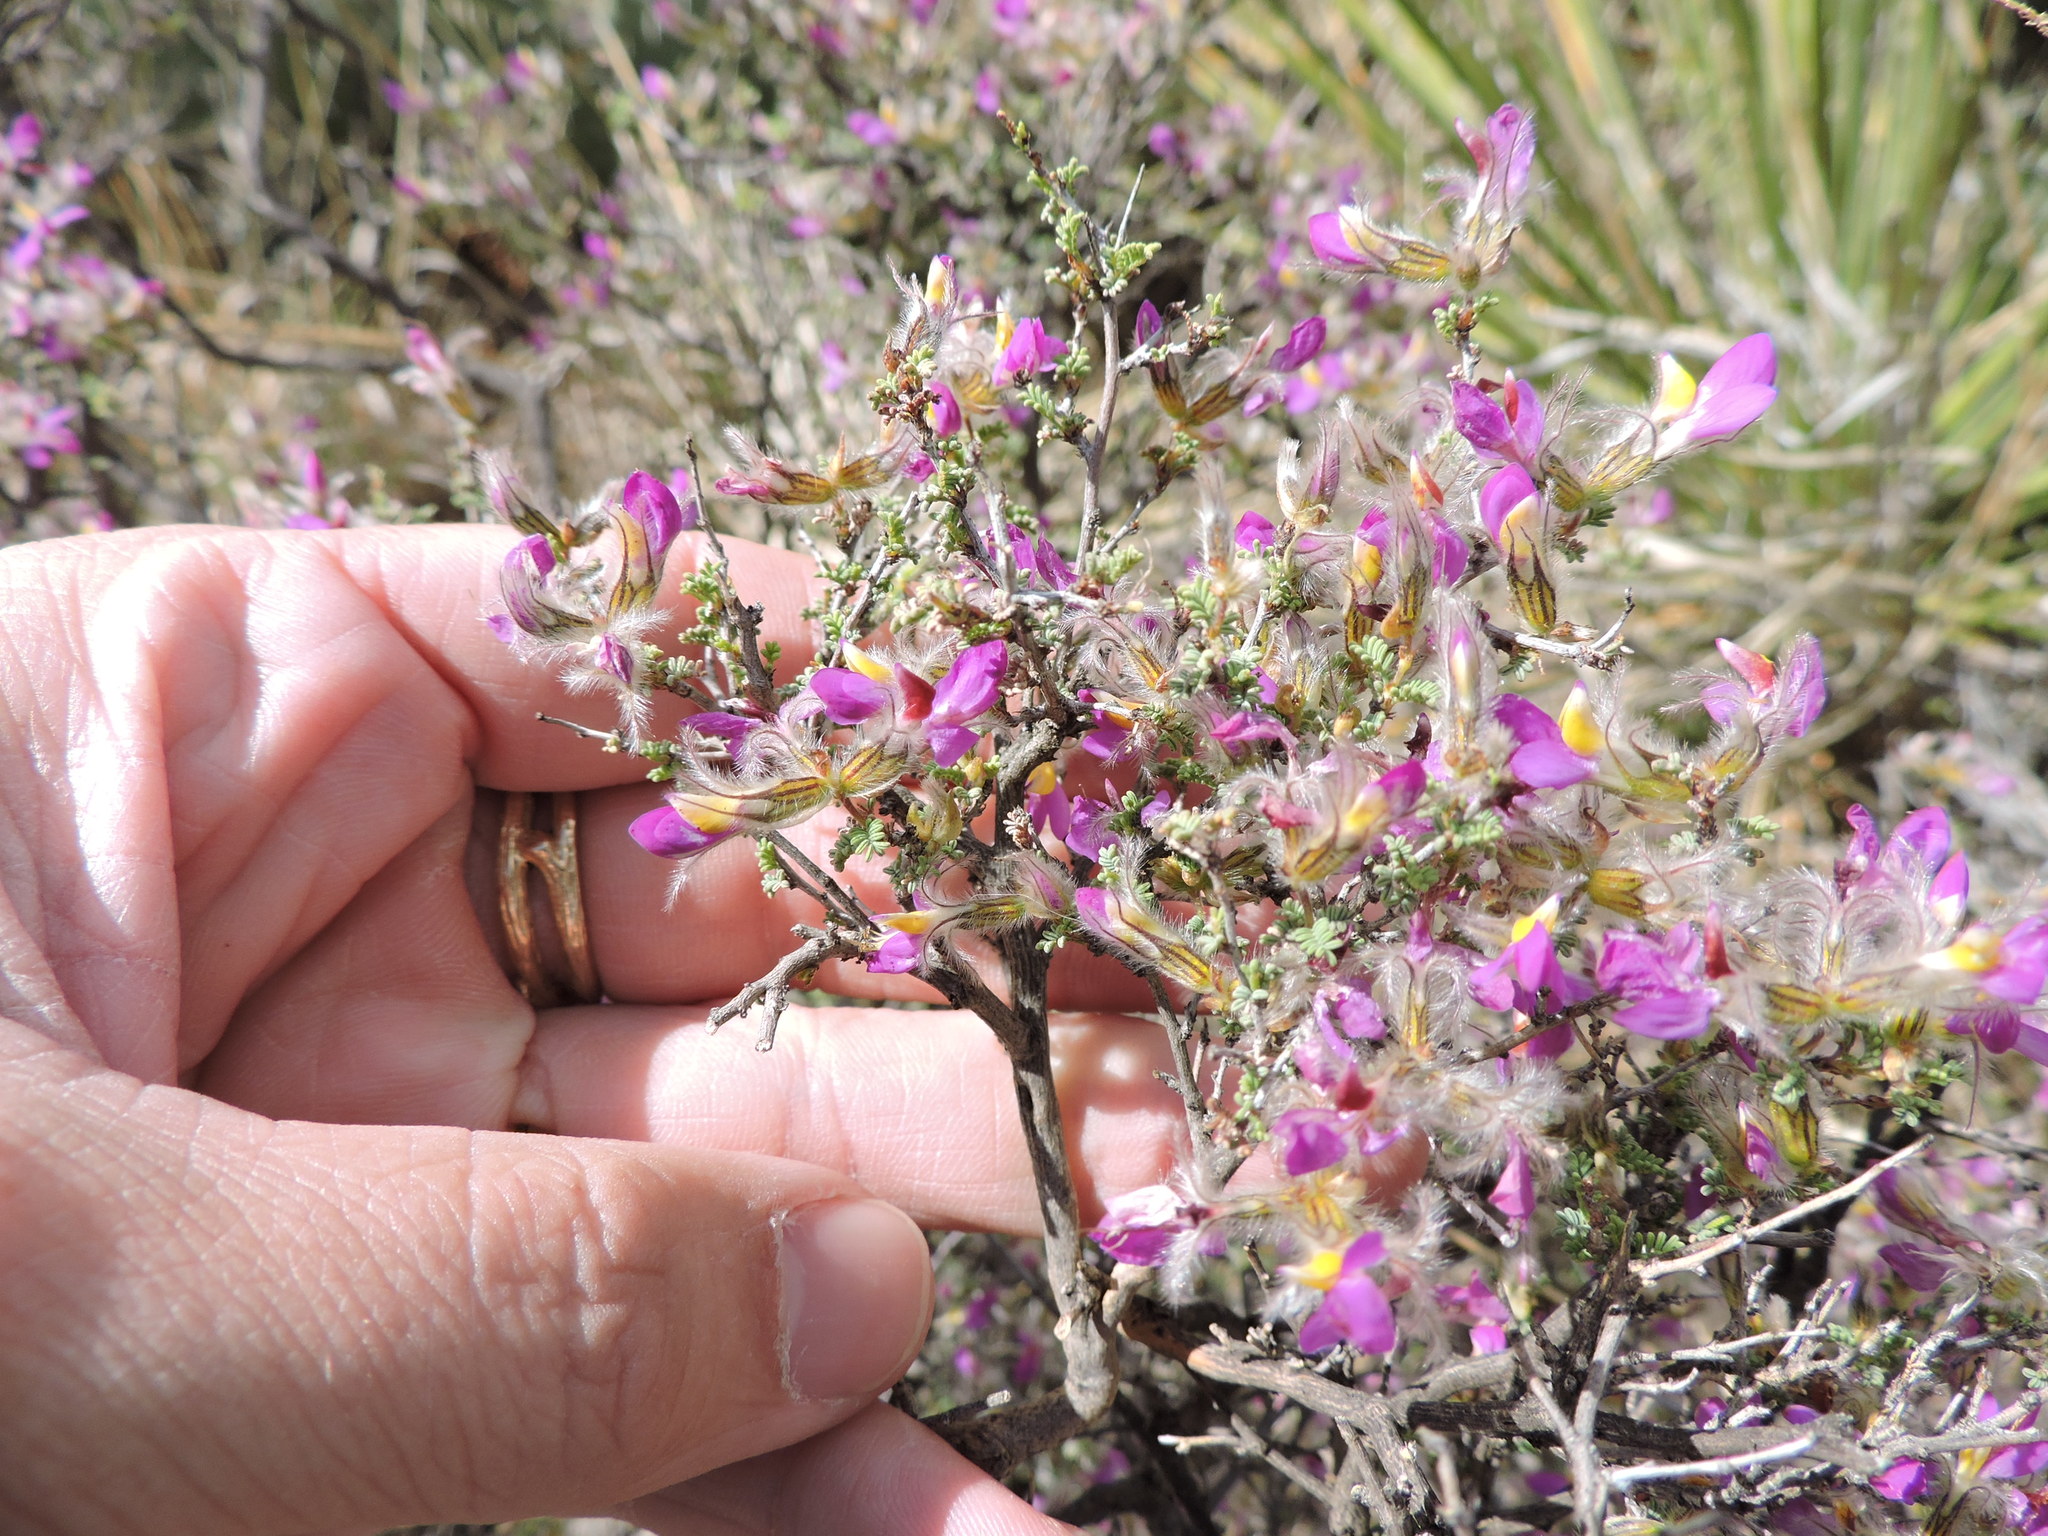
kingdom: Plantae
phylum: Tracheophyta
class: Magnoliopsida
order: Fabales
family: Fabaceae
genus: Dalea
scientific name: Dalea formosa
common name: Feather-plume dalea
